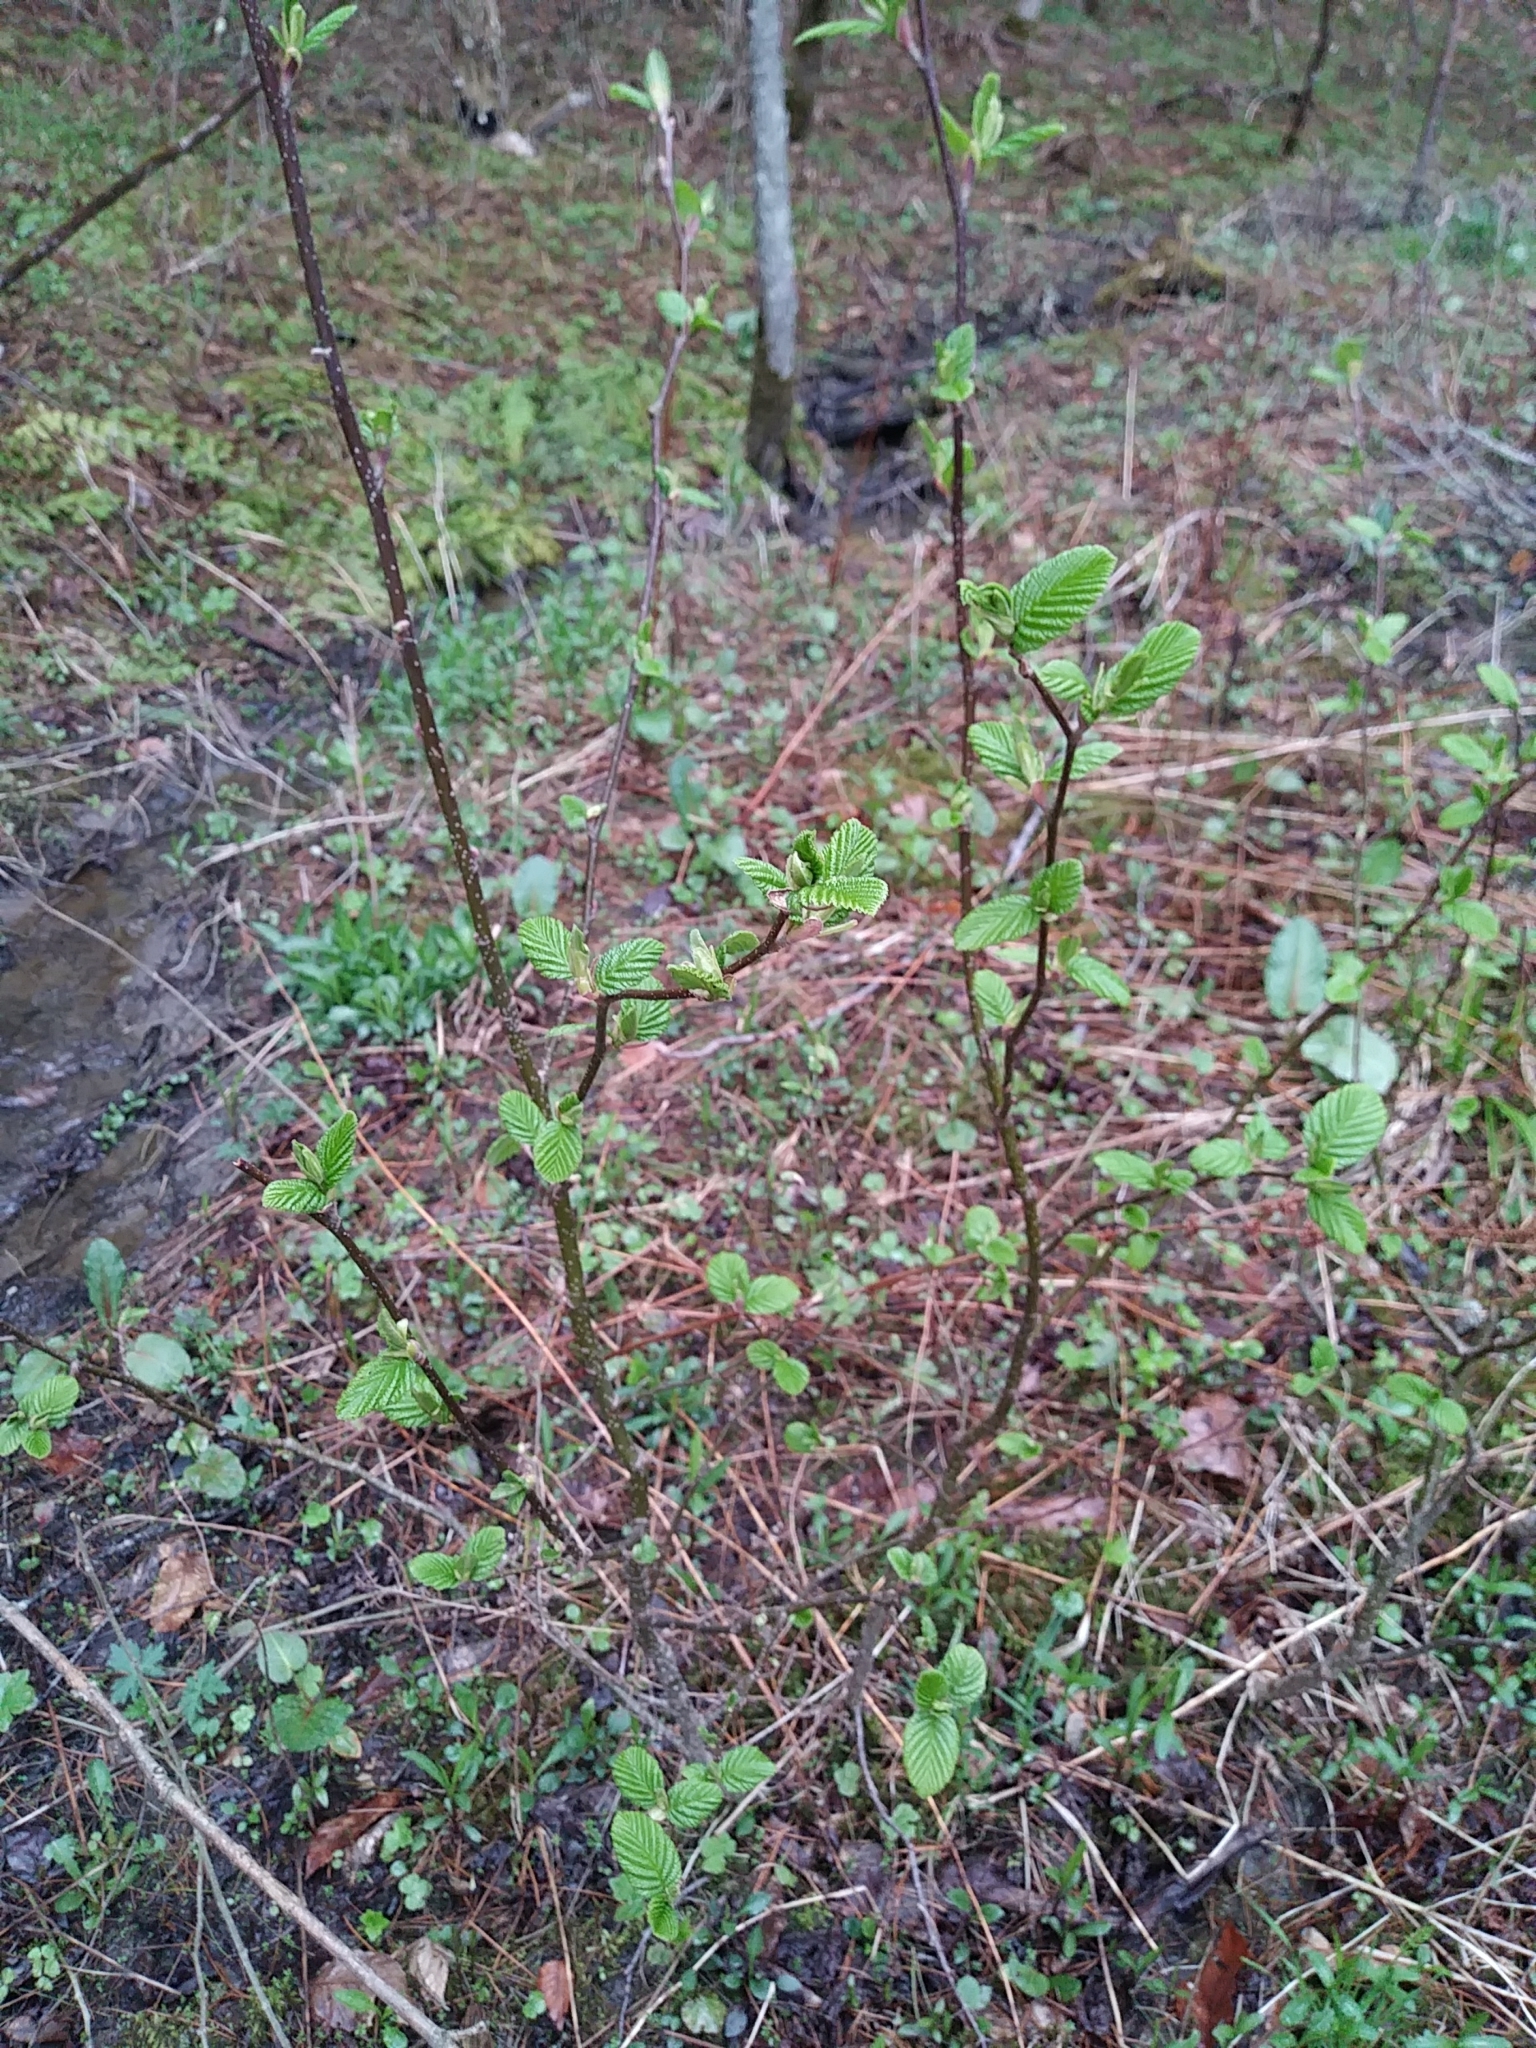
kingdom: Plantae
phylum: Tracheophyta
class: Magnoliopsida
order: Fagales
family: Betulaceae
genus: Alnus
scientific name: Alnus incana
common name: Grey alder
